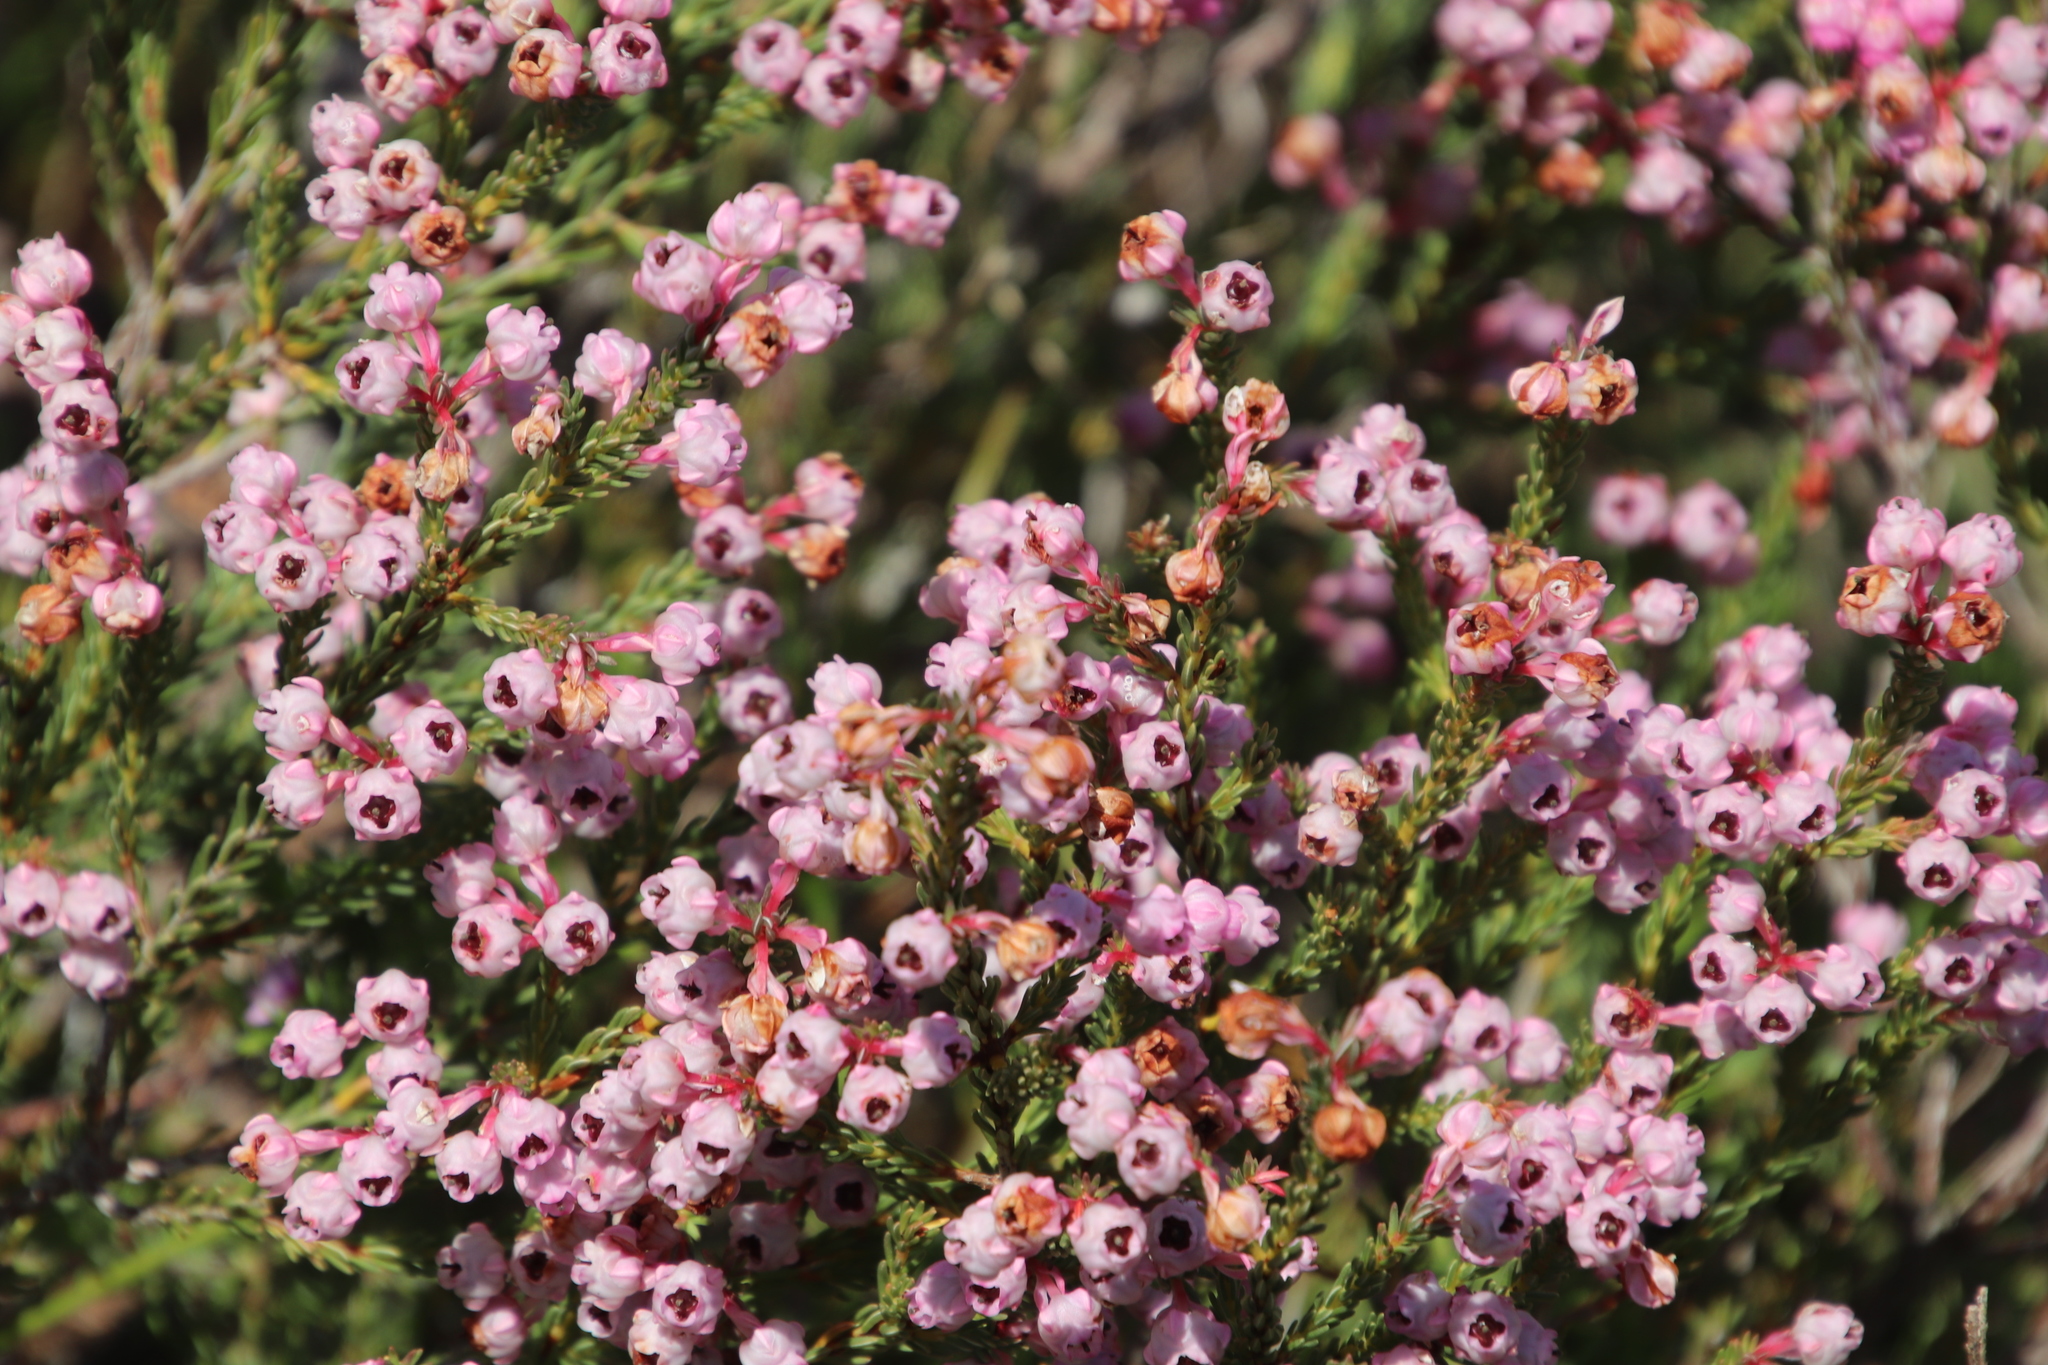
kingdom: Plantae
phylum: Tracheophyta
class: Magnoliopsida
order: Ericales
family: Ericaceae
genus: Erica
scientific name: Erica baccans
